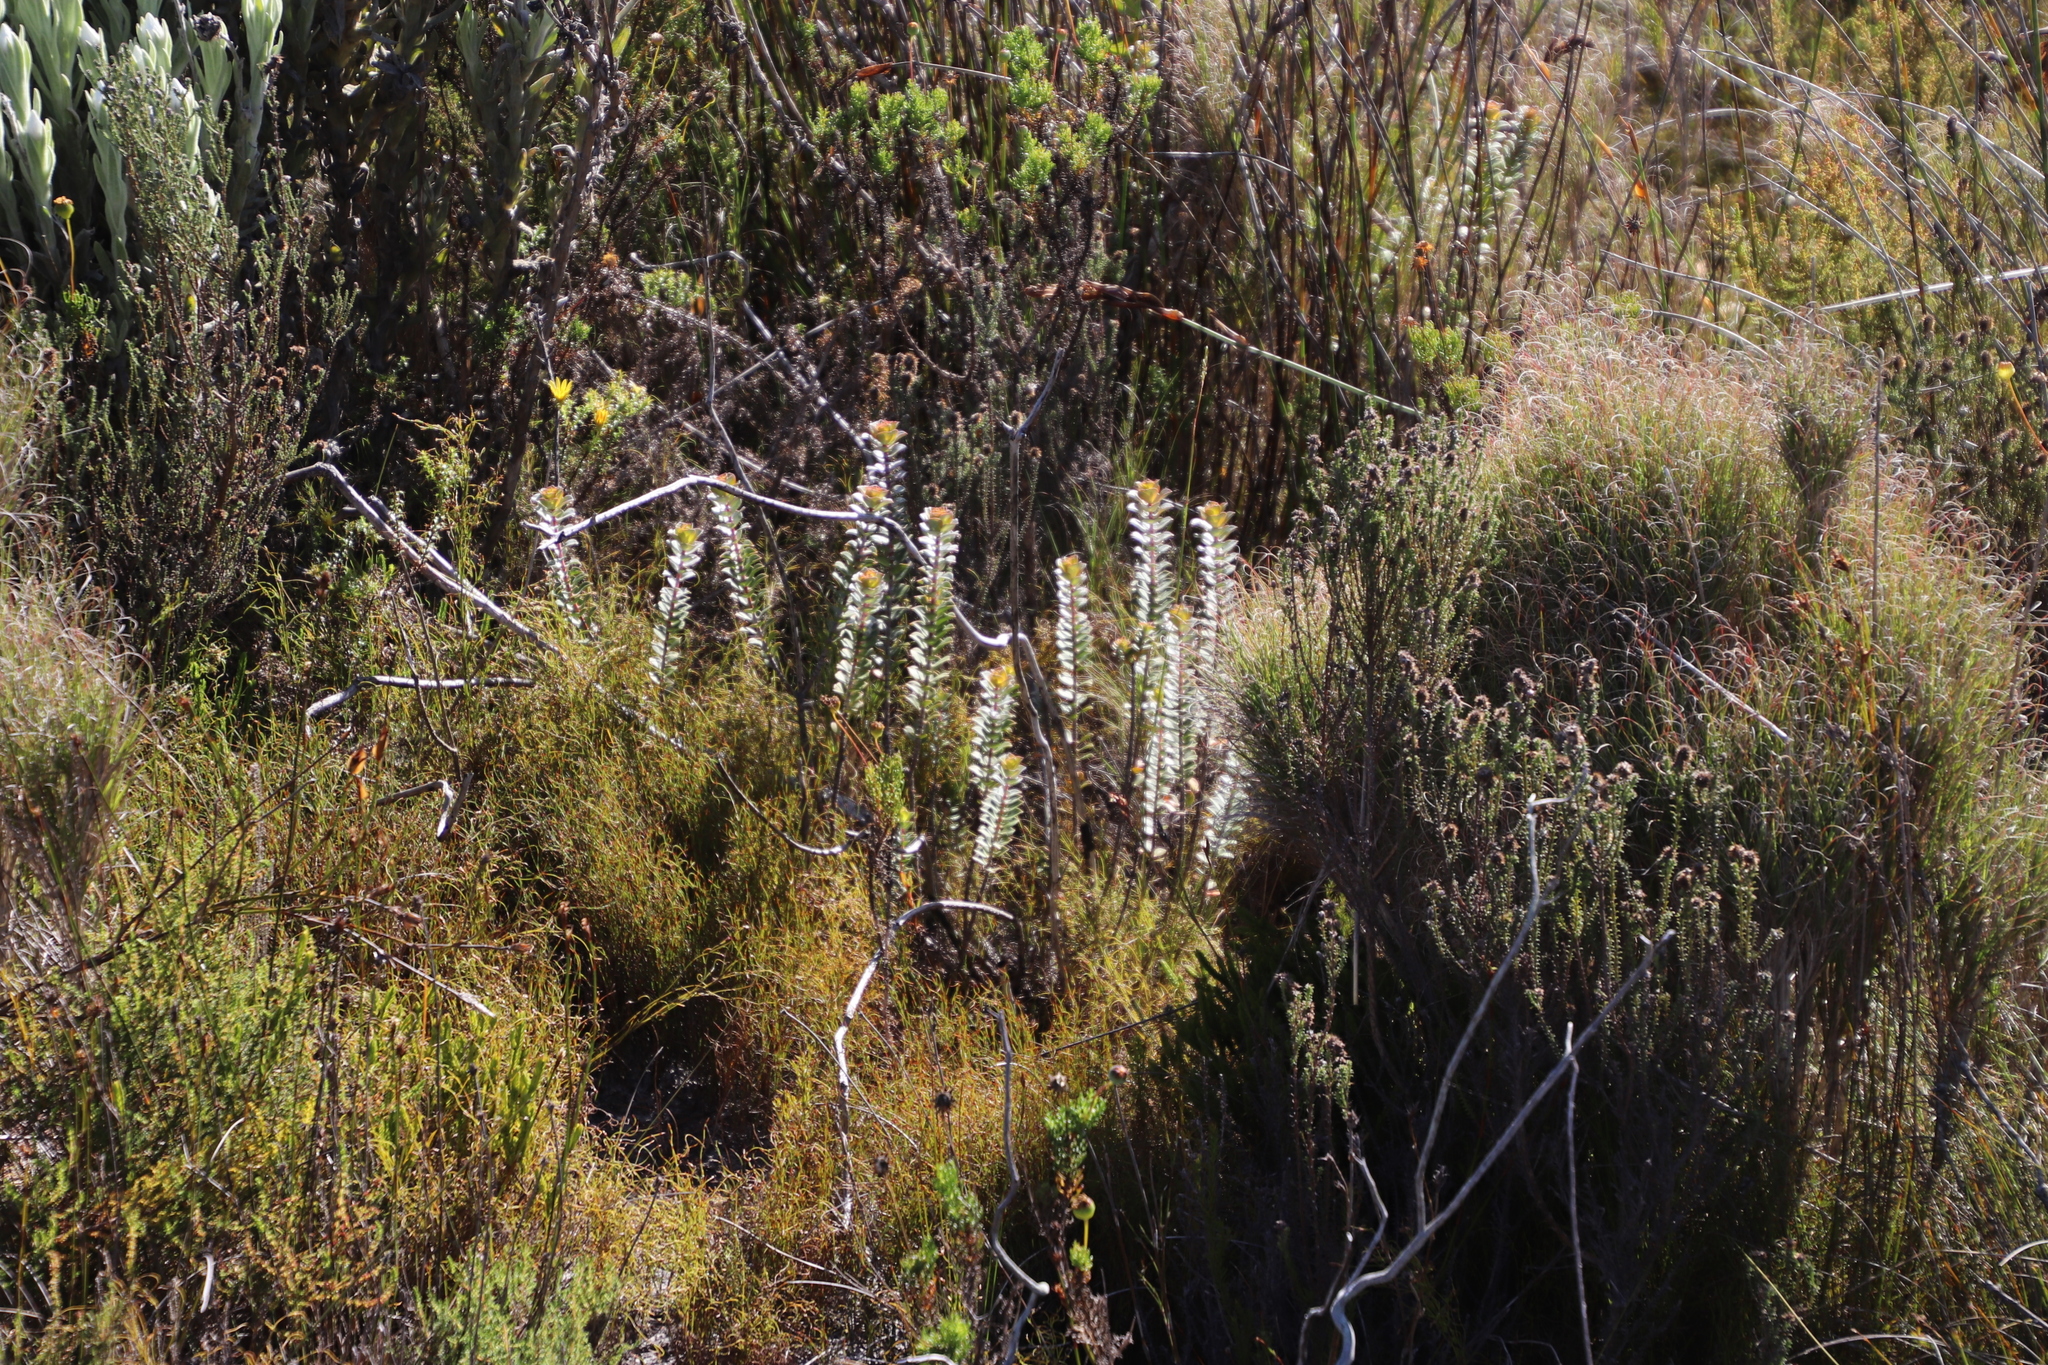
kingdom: Plantae
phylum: Tracheophyta
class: Magnoliopsida
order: Myrtales
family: Penaeaceae
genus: Saltera
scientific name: Saltera sarcocolla
